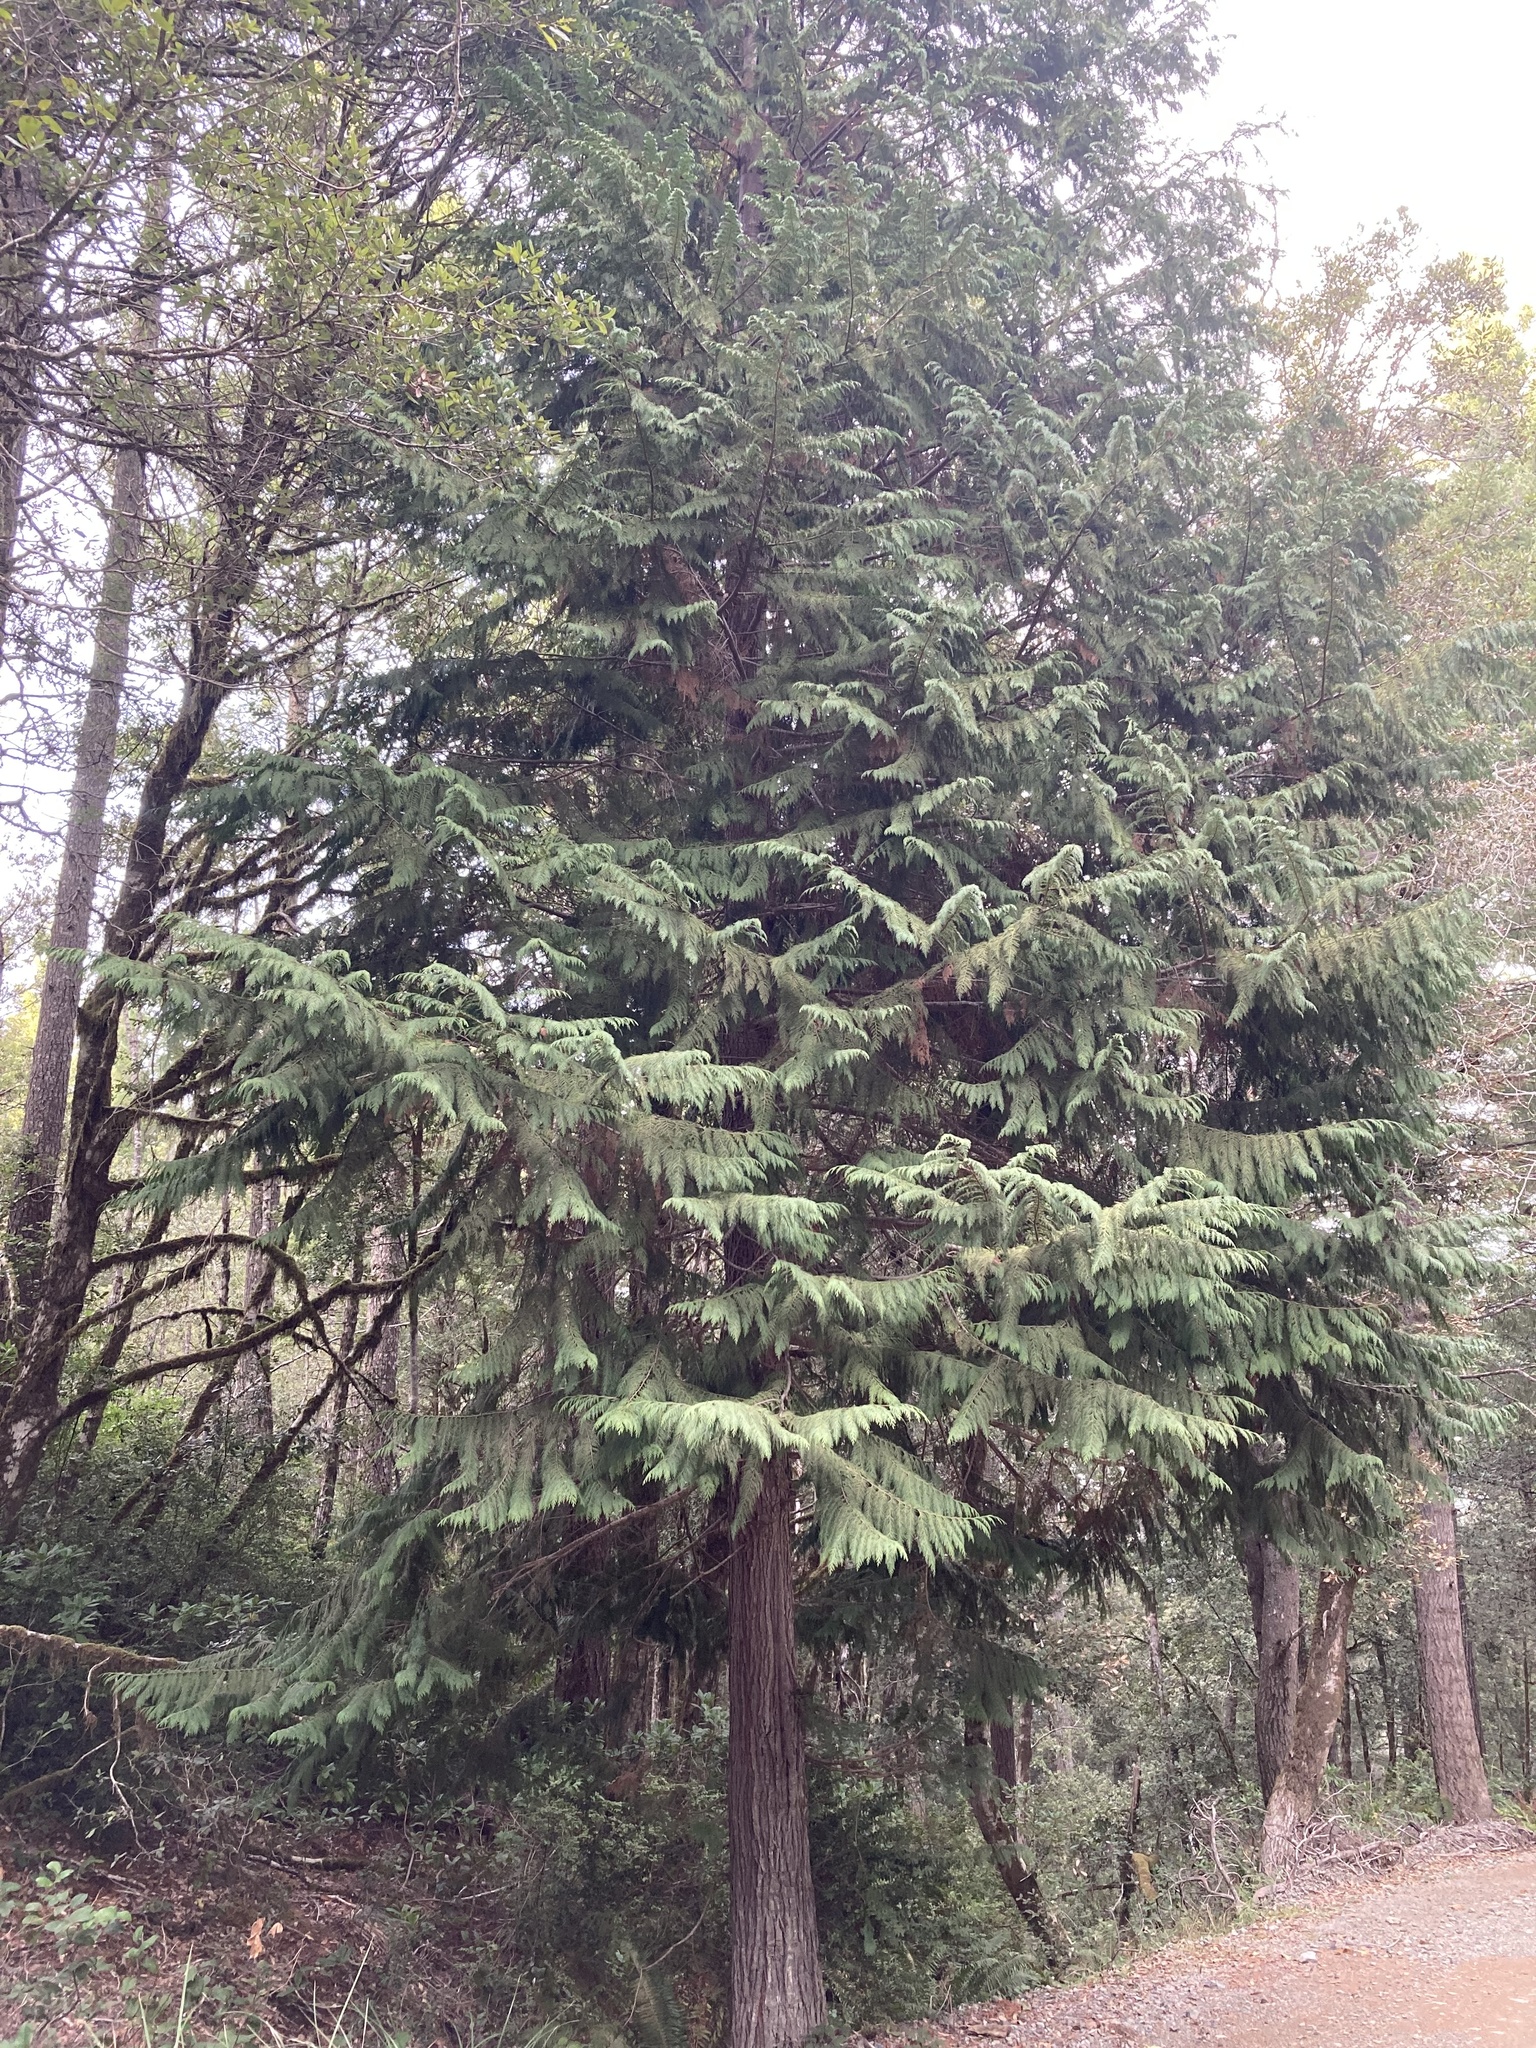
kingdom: Plantae
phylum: Tracheophyta
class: Pinopsida
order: Pinales
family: Cupressaceae
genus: Chamaecyparis
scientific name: Chamaecyparis lawsoniana
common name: Lawson's cypress
